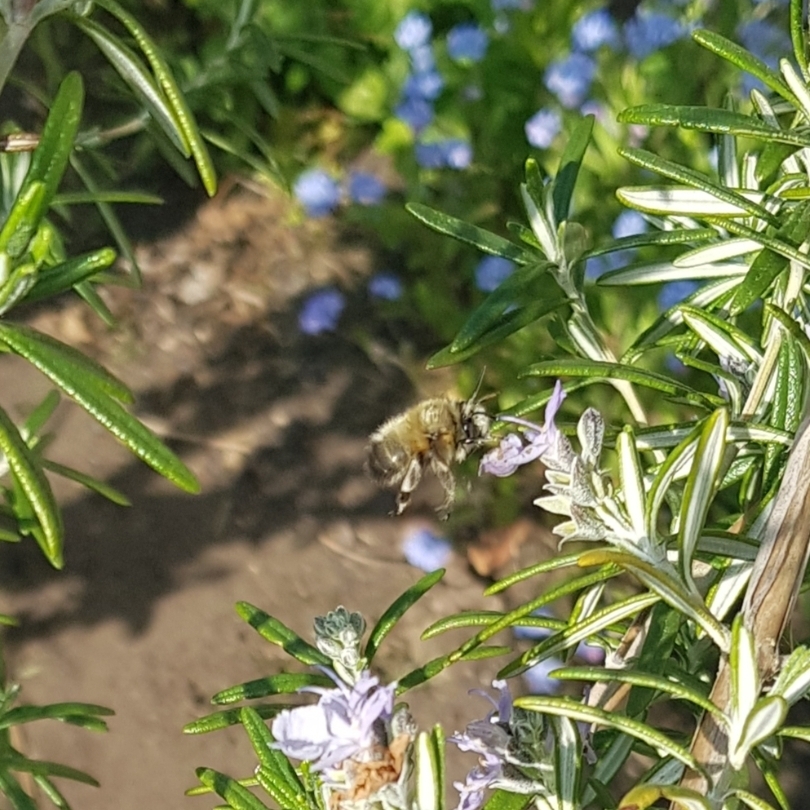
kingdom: Animalia
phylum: Arthropoda
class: Insecta
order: Hymenoptera
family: Apidae
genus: Anthophora
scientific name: Anthophora plumipes
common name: Hairy-footed flower bee
